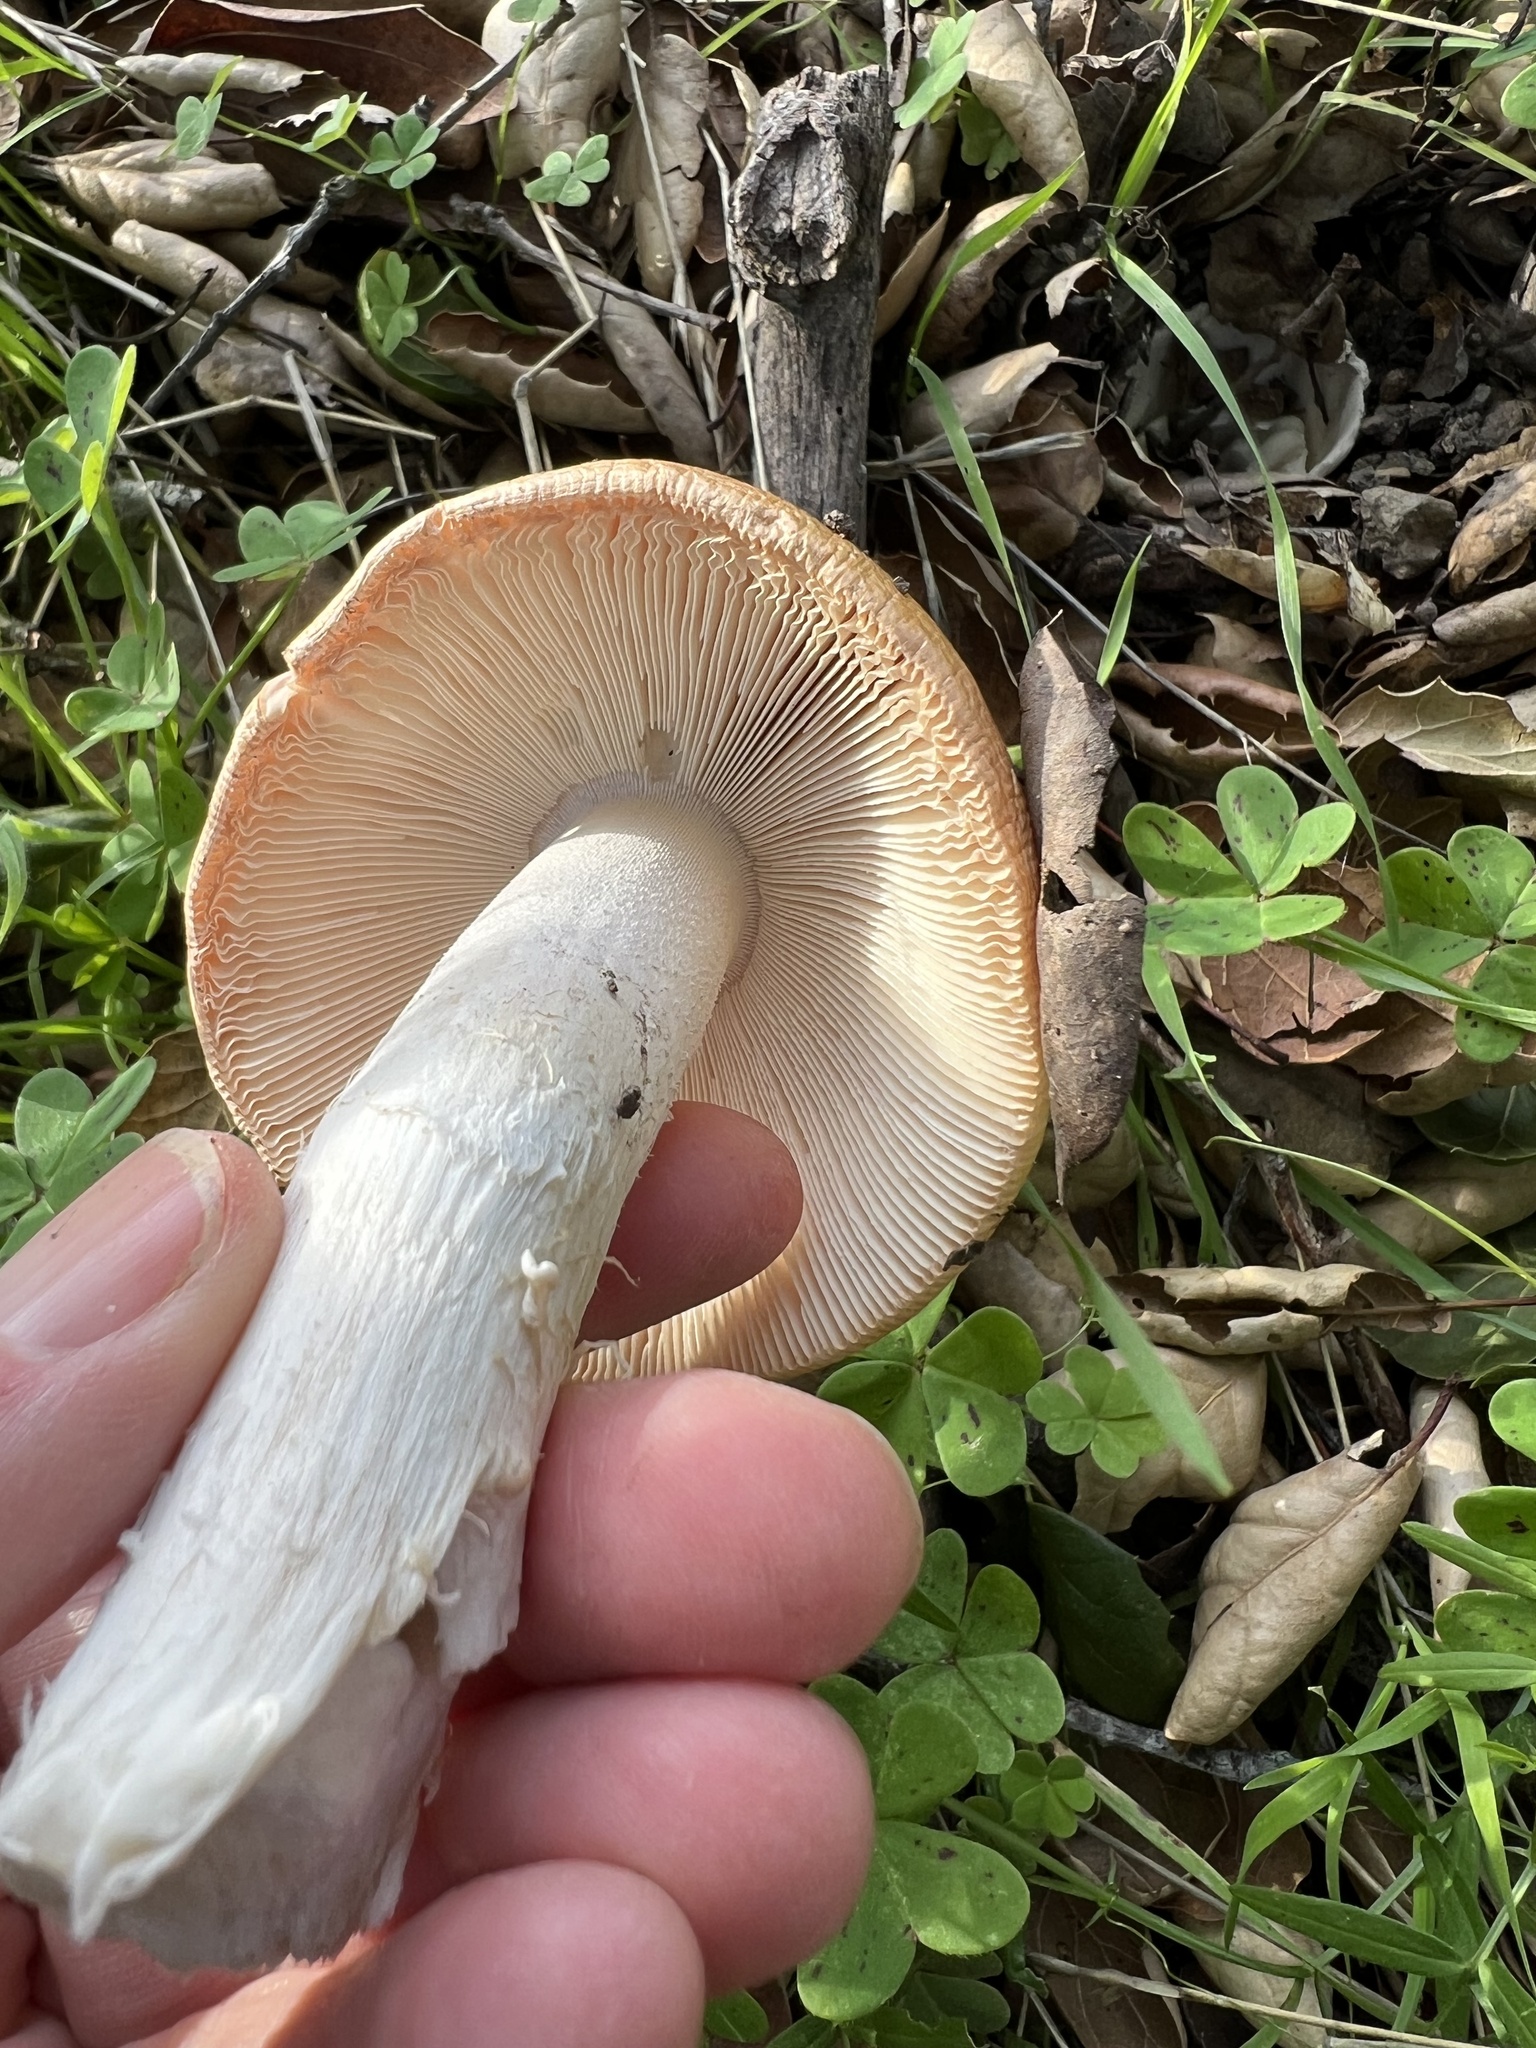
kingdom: Fungi
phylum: Basidiomycota
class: Agaricomycetes
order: Agaricales
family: Amanitaceae
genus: Amanita
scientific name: Amanita velosa
